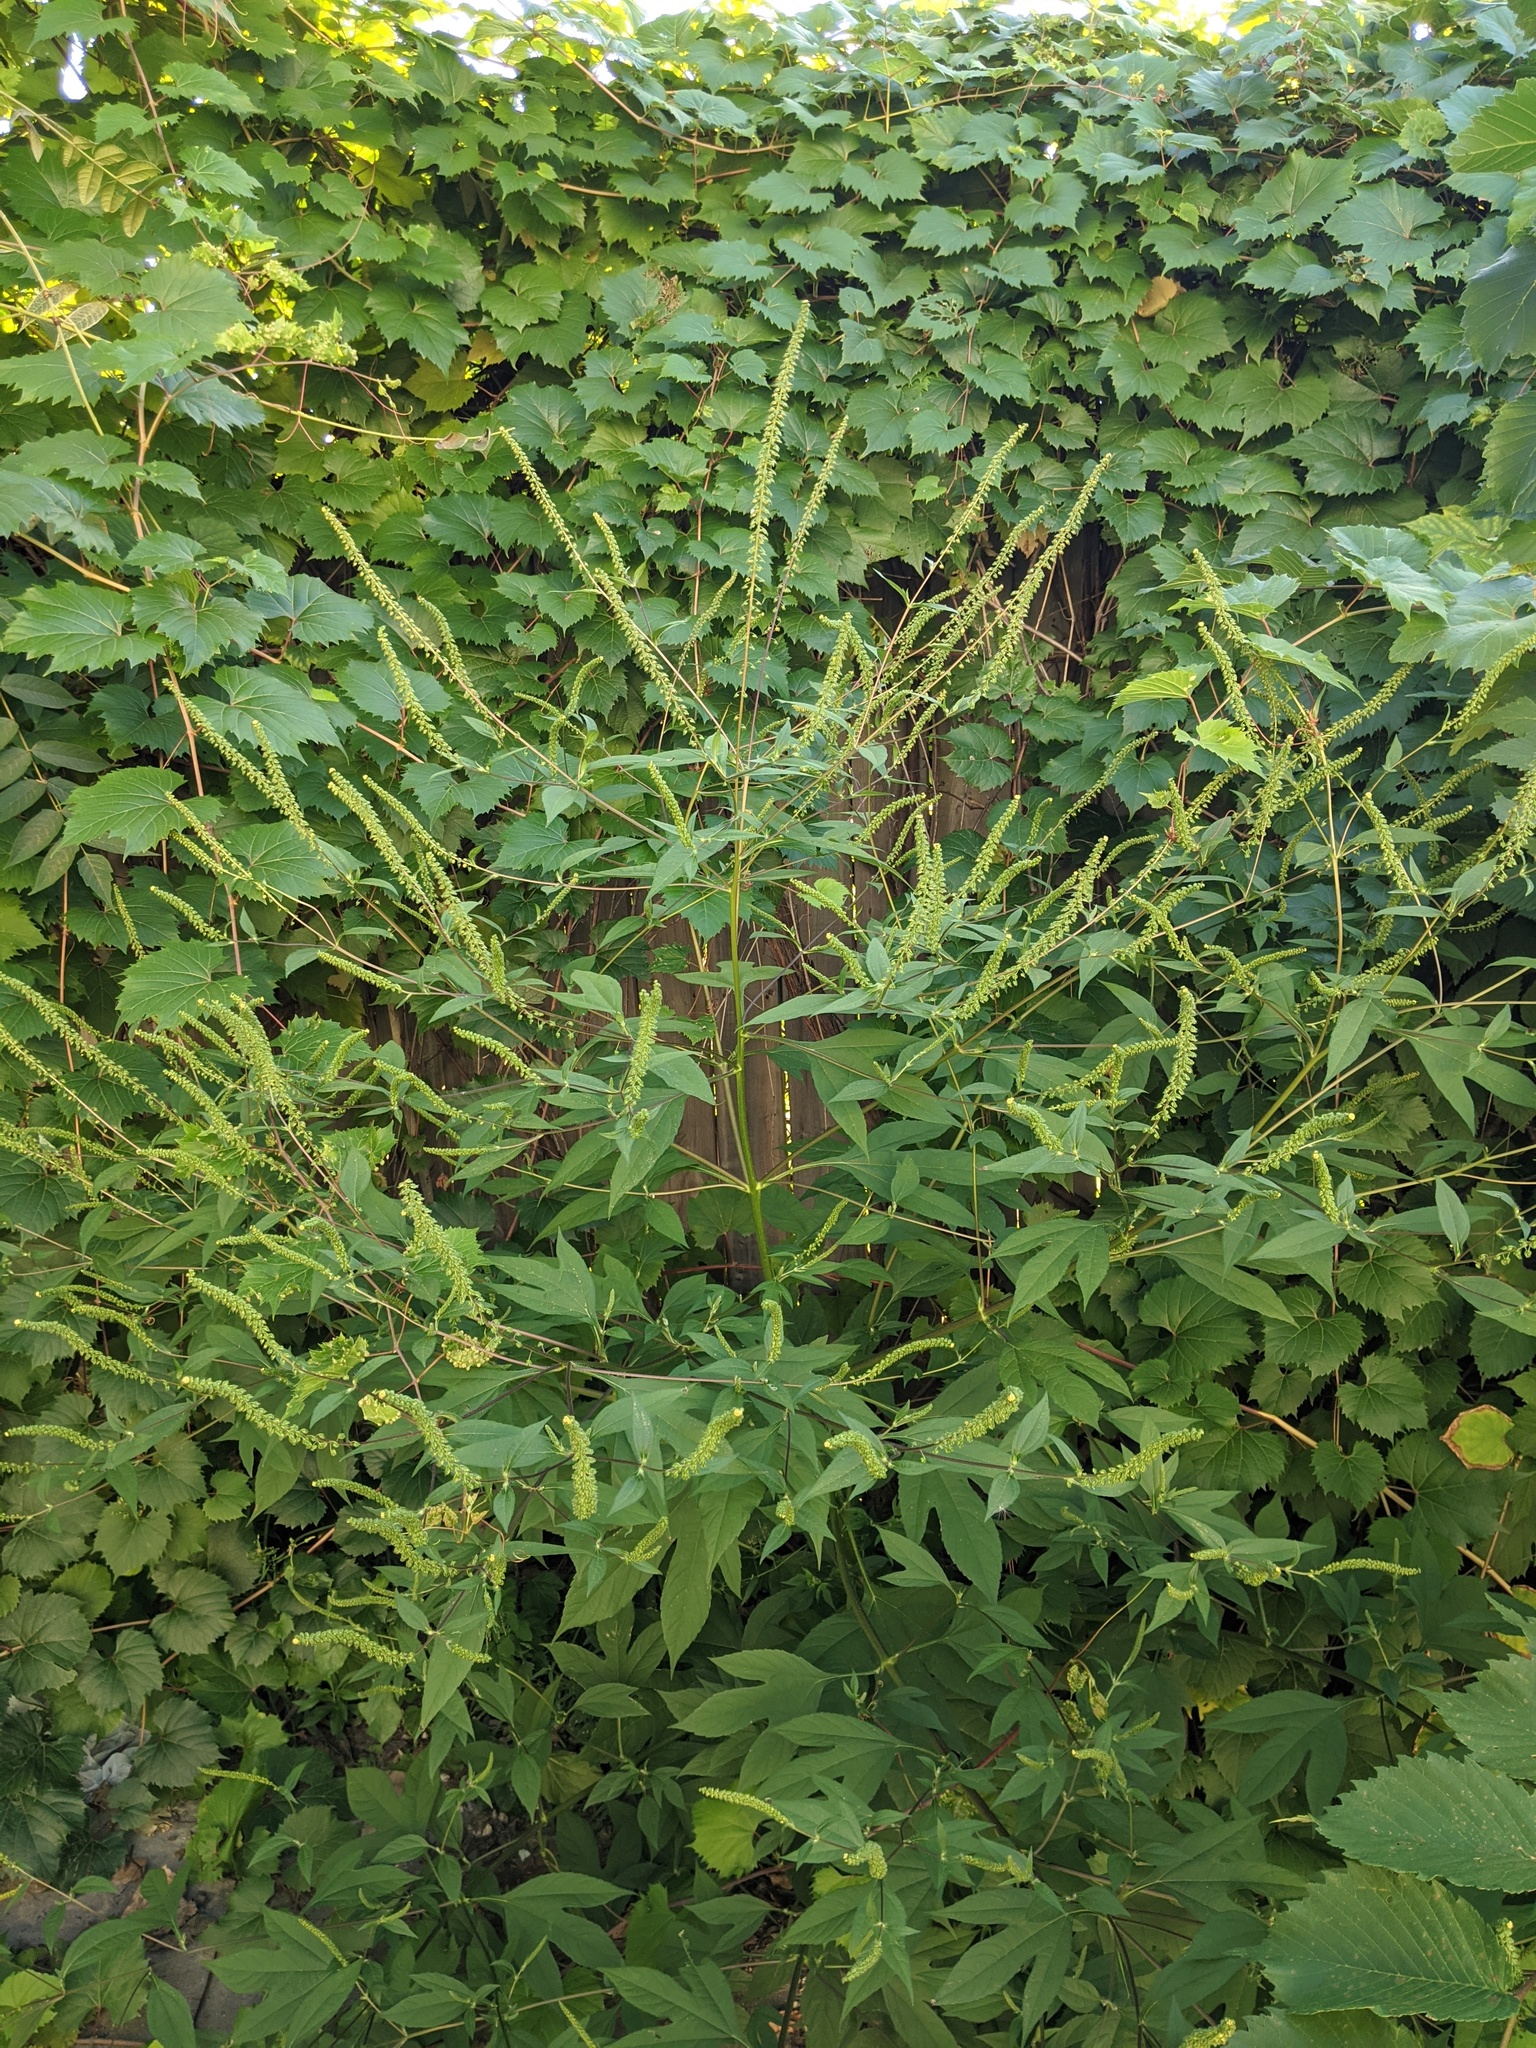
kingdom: Plantae
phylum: Tracheophyta
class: Magnoliopsida
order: Asterales
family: Asteraceae
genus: Ambrosia
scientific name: Ambrosia trifida
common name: Giant ragweed
